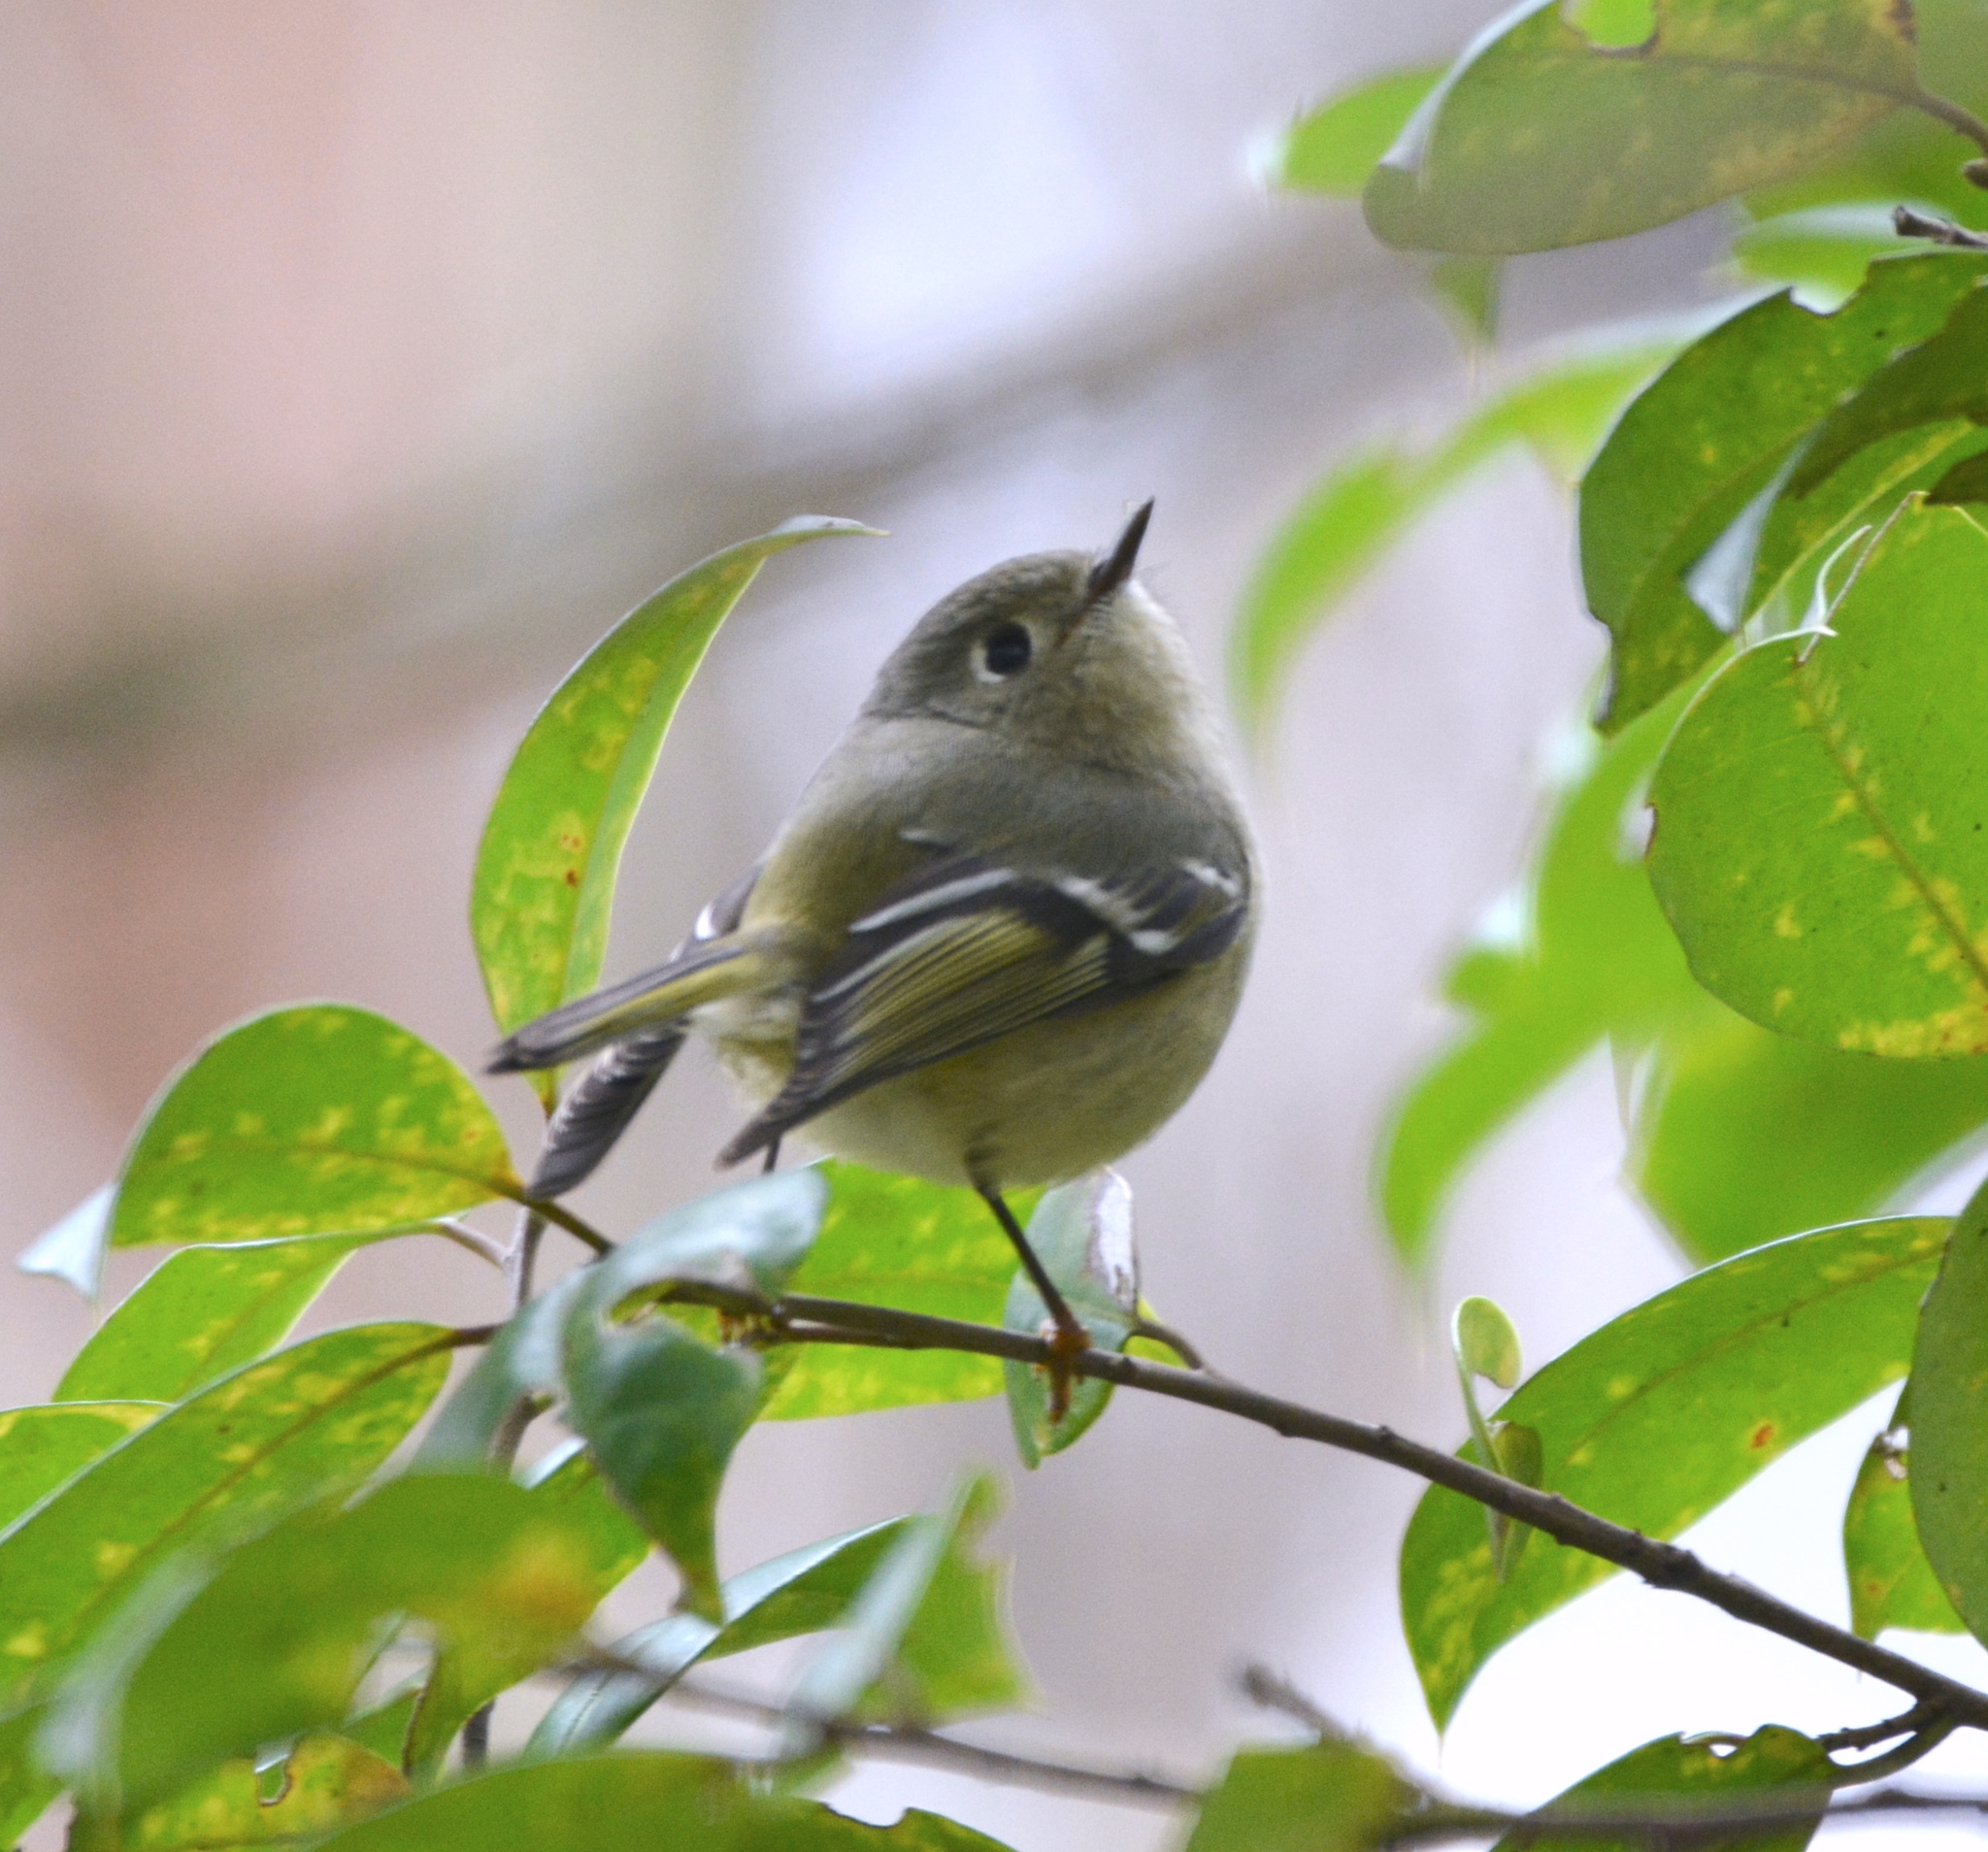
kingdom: Animalia
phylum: Chordata
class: Aves
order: Passeriformes
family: Regulidae
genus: Regulus
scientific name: Regulus calendula
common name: Ruby-crowned kinglet
